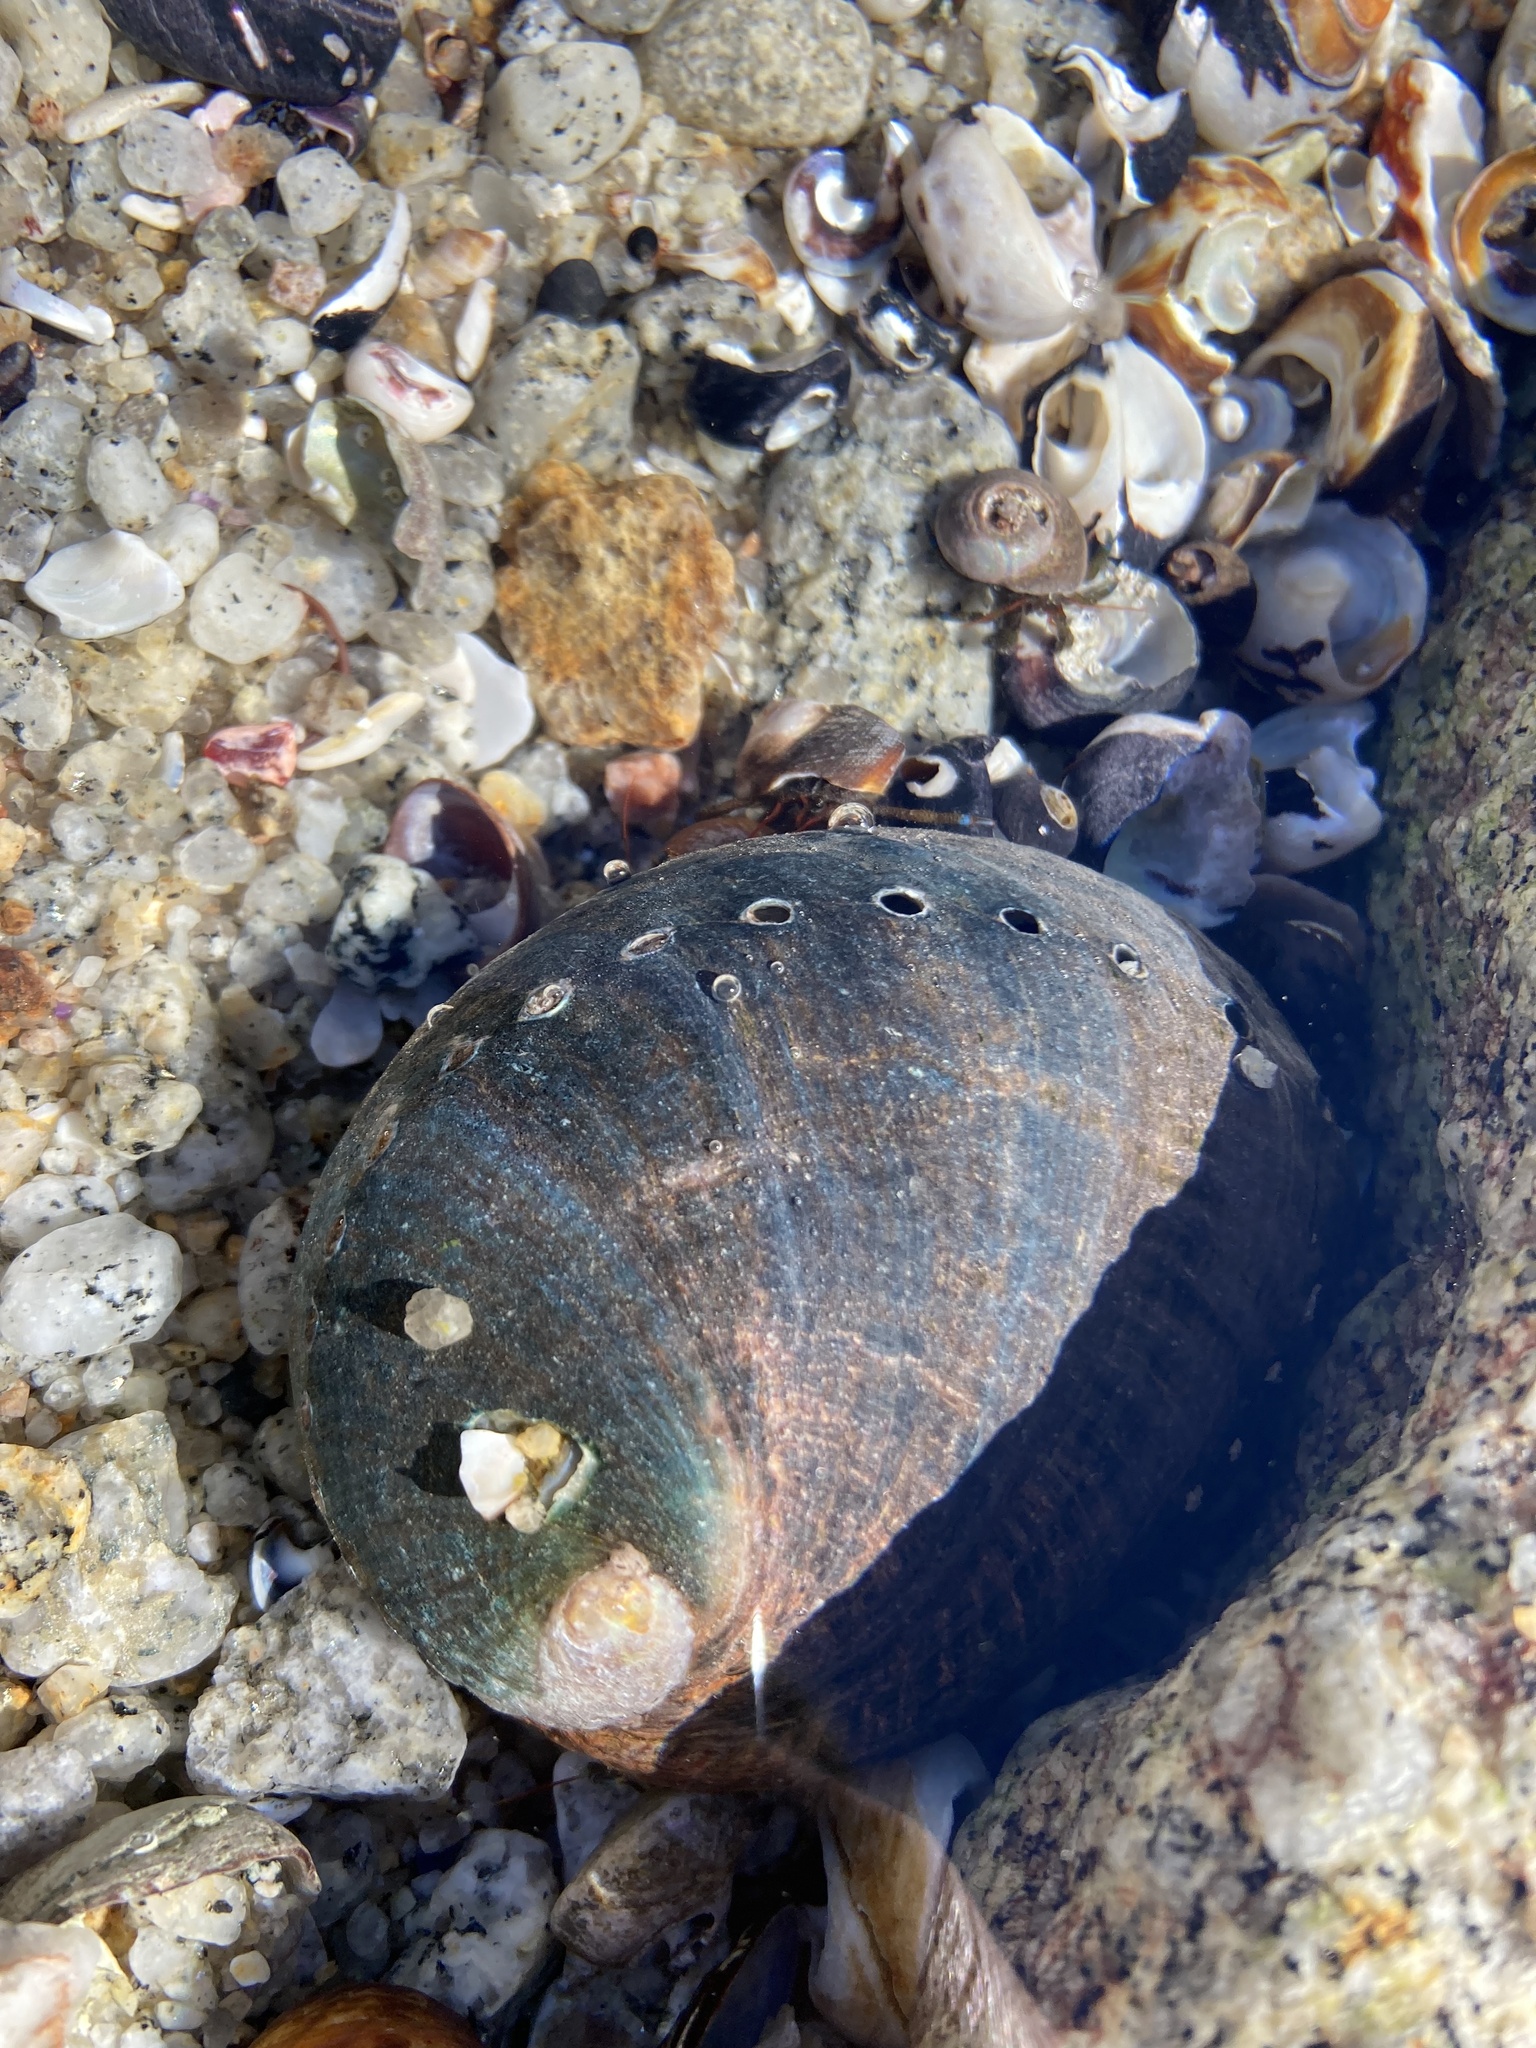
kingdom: Animalia
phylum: Mollusca
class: Gastropoda
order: Lepetellida
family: Haliotidae
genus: Haliotis
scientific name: Haliotis cracherodii
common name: Black abalone
